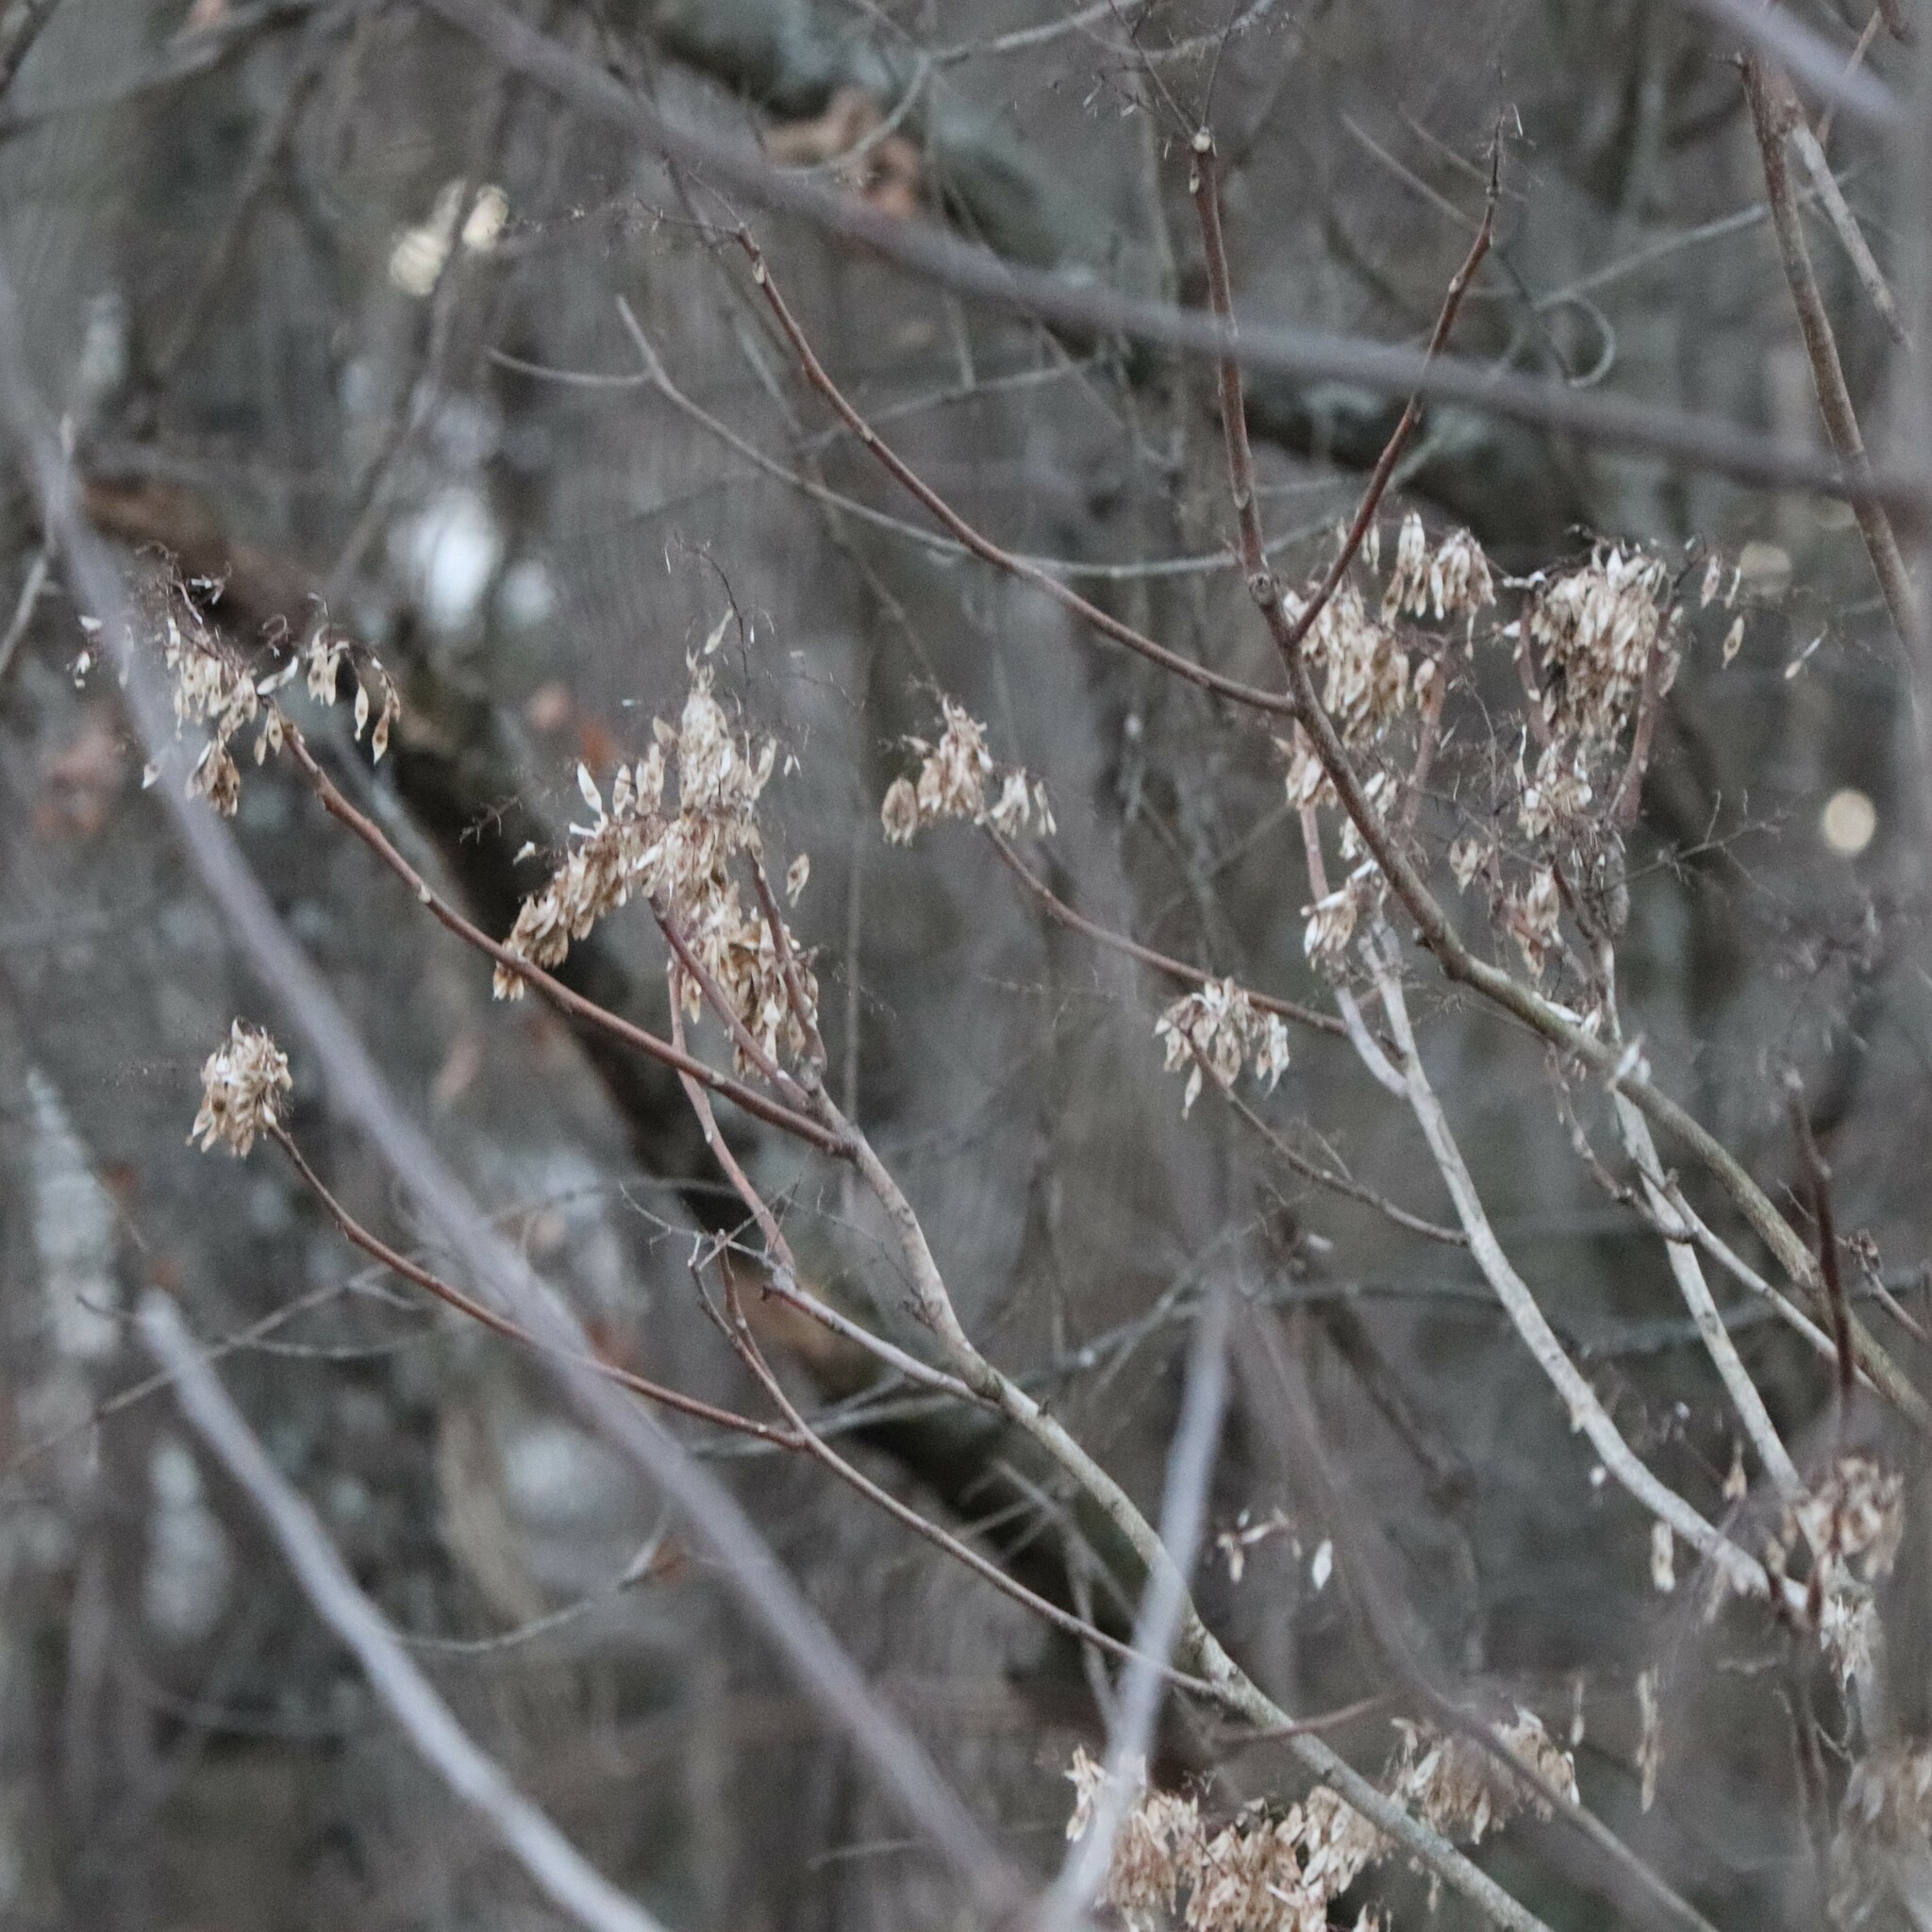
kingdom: Plantae
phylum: Tracheophyta
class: Magnoliopsida
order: Sapindales
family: Simaroubaceae
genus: Ailanthus
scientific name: Ailanthus altissima
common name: Tree-of-heaven
